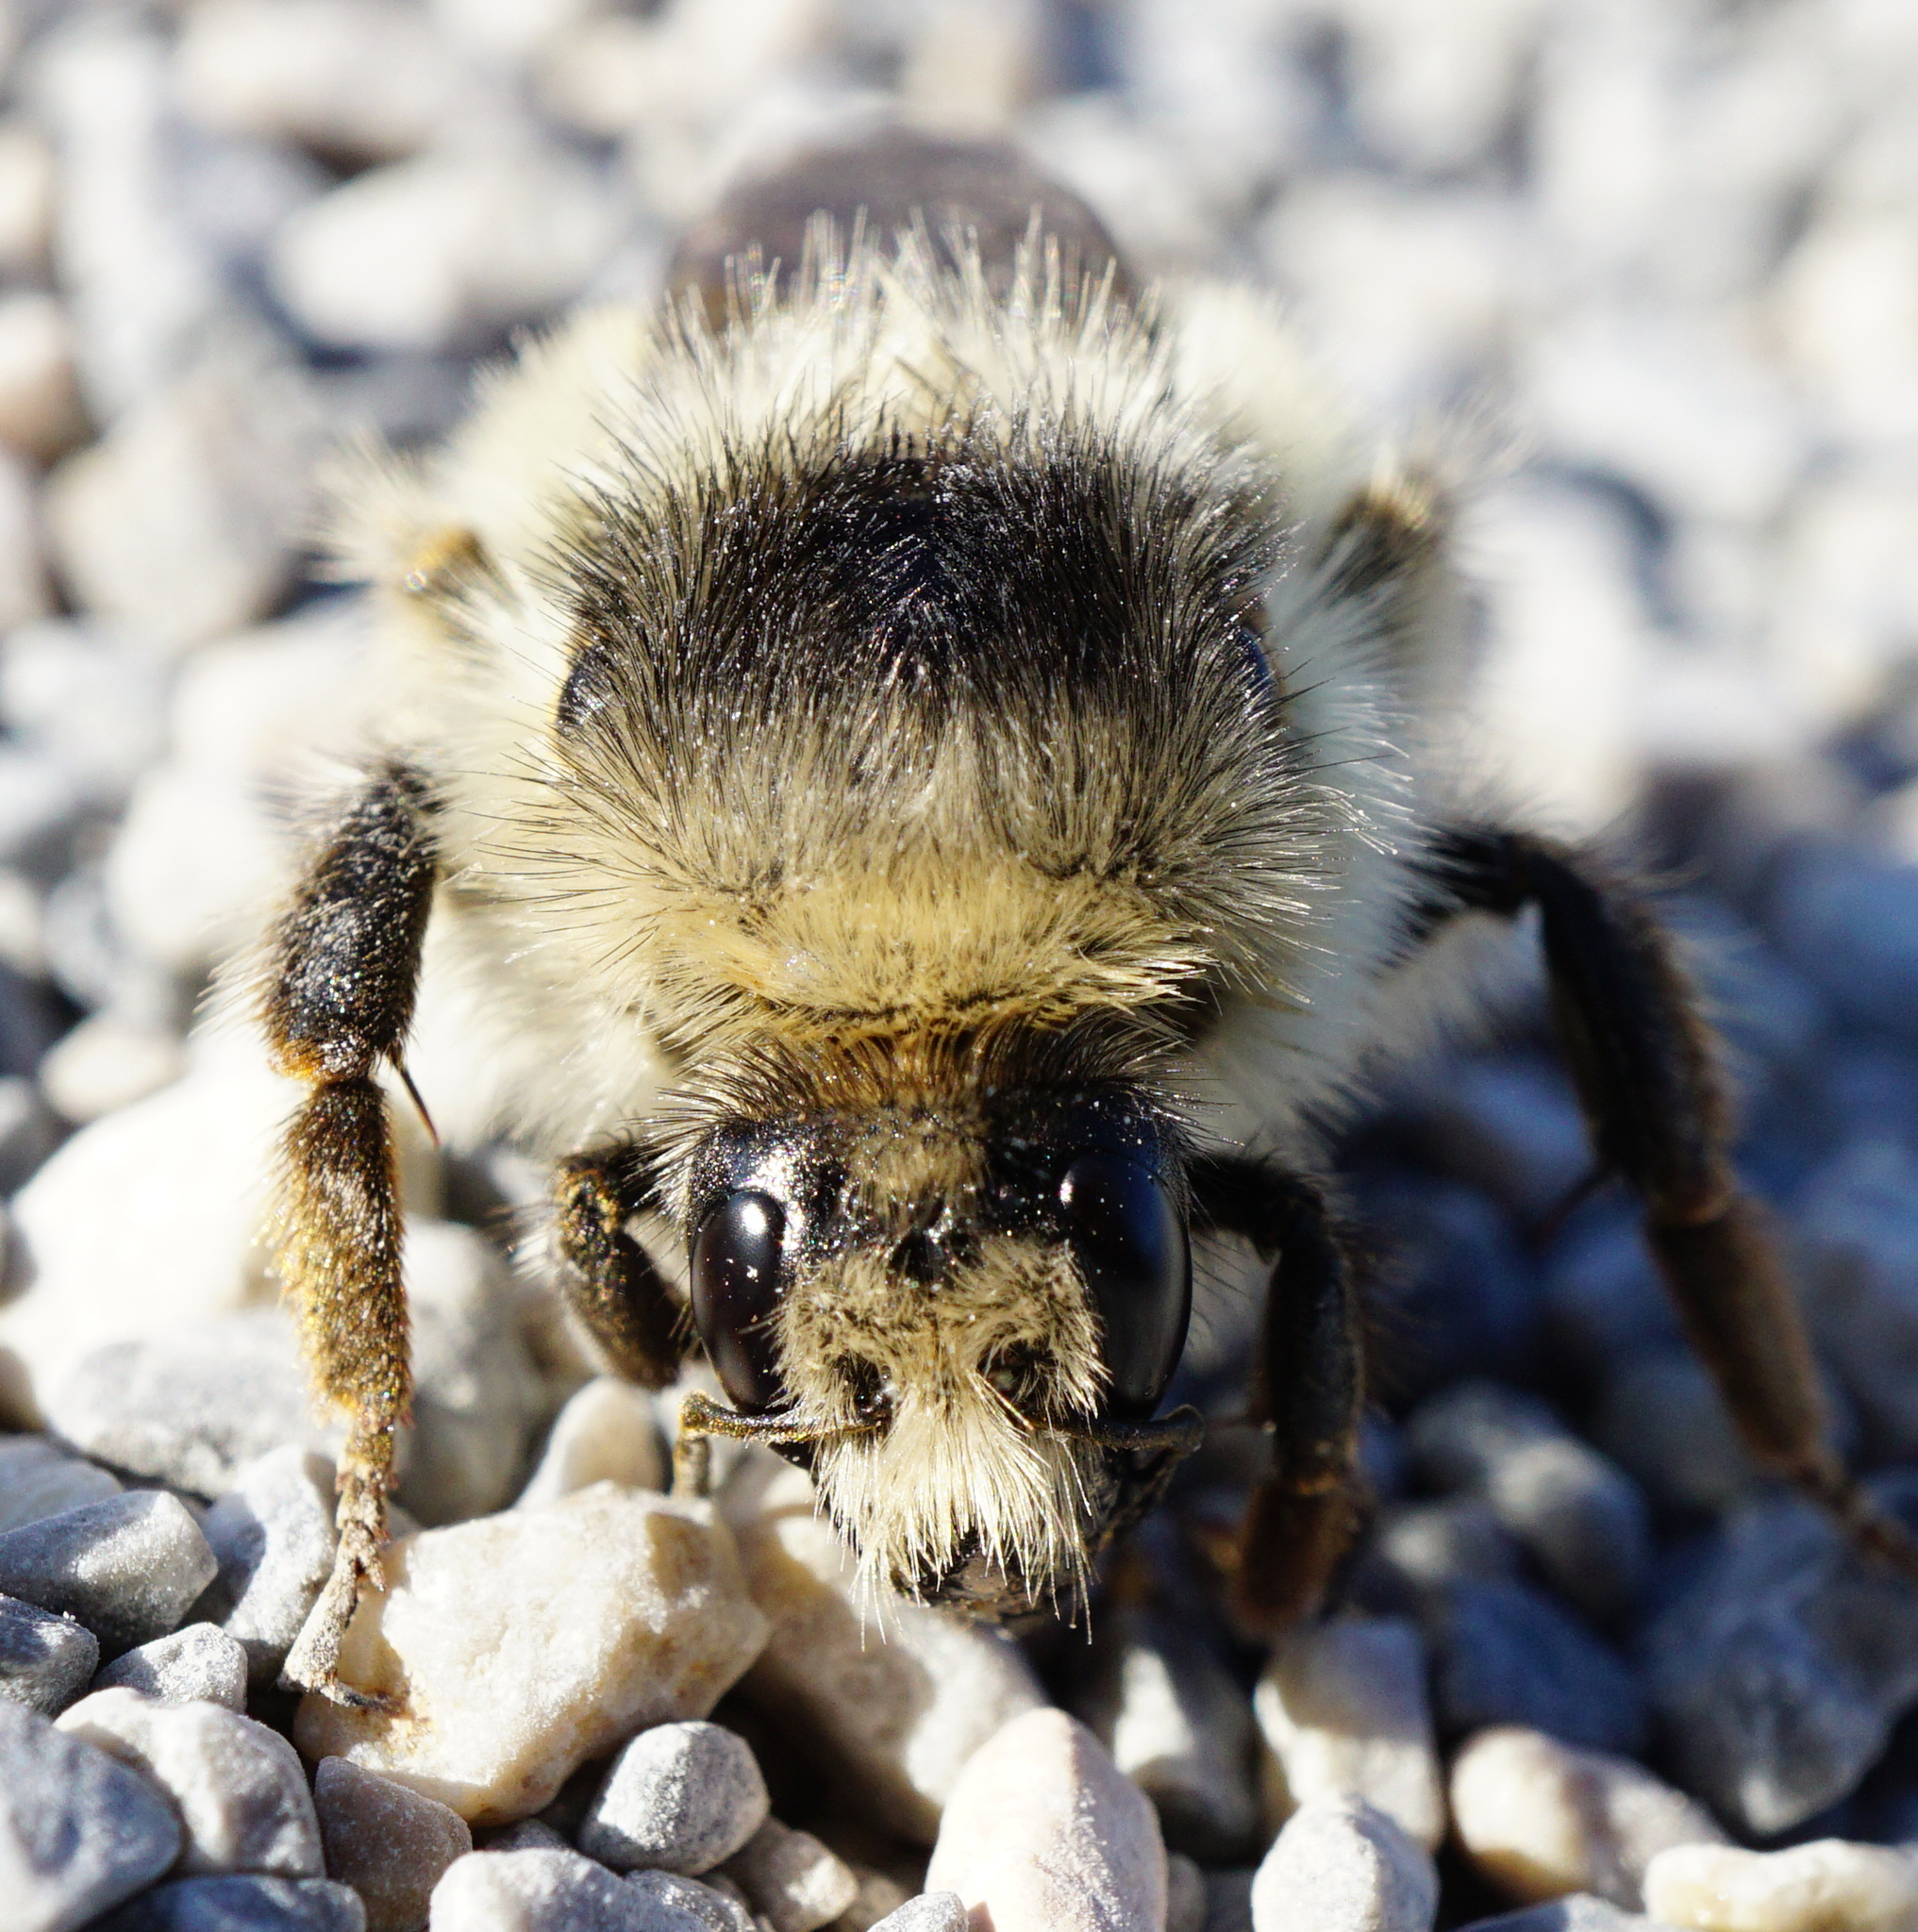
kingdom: Animalia
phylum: Arthropoda
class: Insecta
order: Hymenoptera
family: Apidae
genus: Bombus
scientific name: Bombus sylvarum
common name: Shrill carder bee
